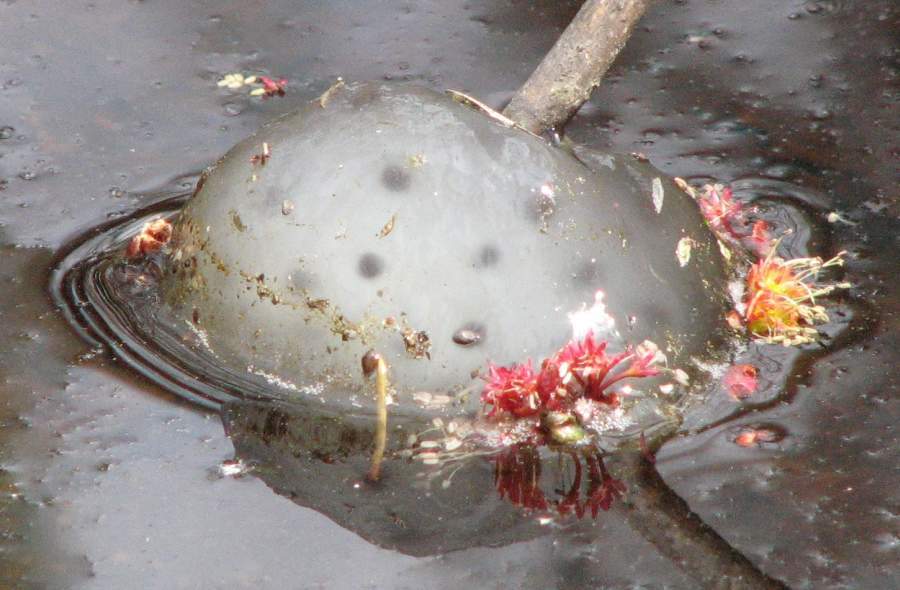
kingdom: Animalia
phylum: Chordata
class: Amphibia
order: Caudata
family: Ambystomatidae
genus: Ambystoma
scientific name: Ambystoma maculatum
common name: Spotted salamander
